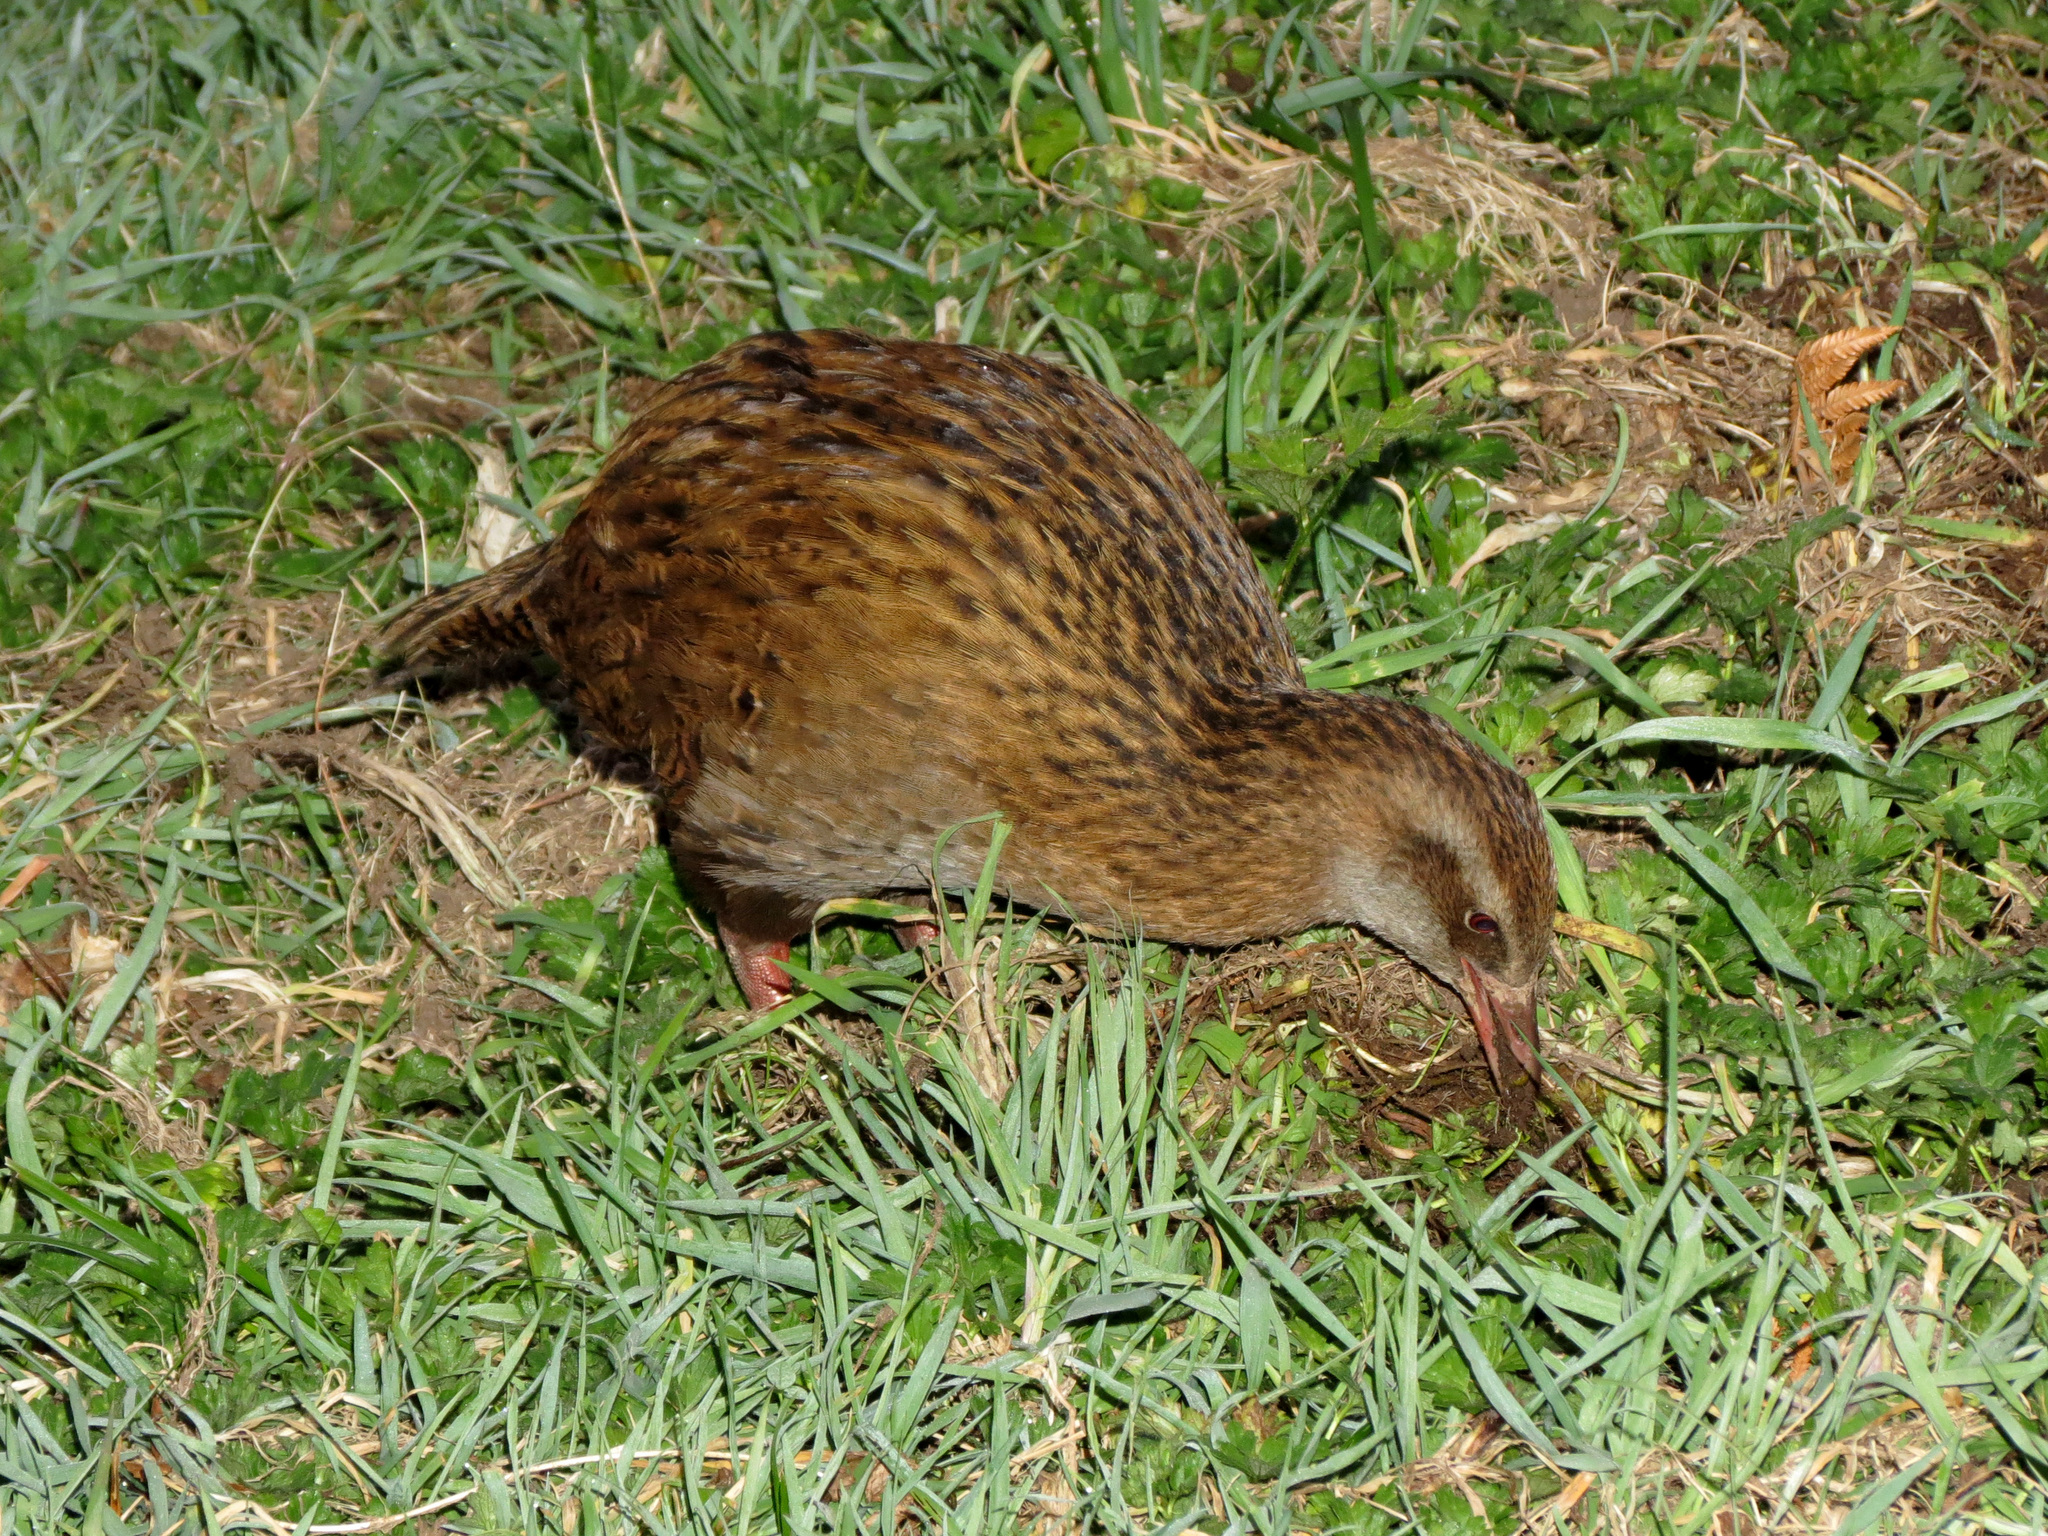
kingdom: Animalia
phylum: Chordata
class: Aves
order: Gruiformes
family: Rallidae
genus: Gallirallus
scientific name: Gallirallus australis
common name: Weka
